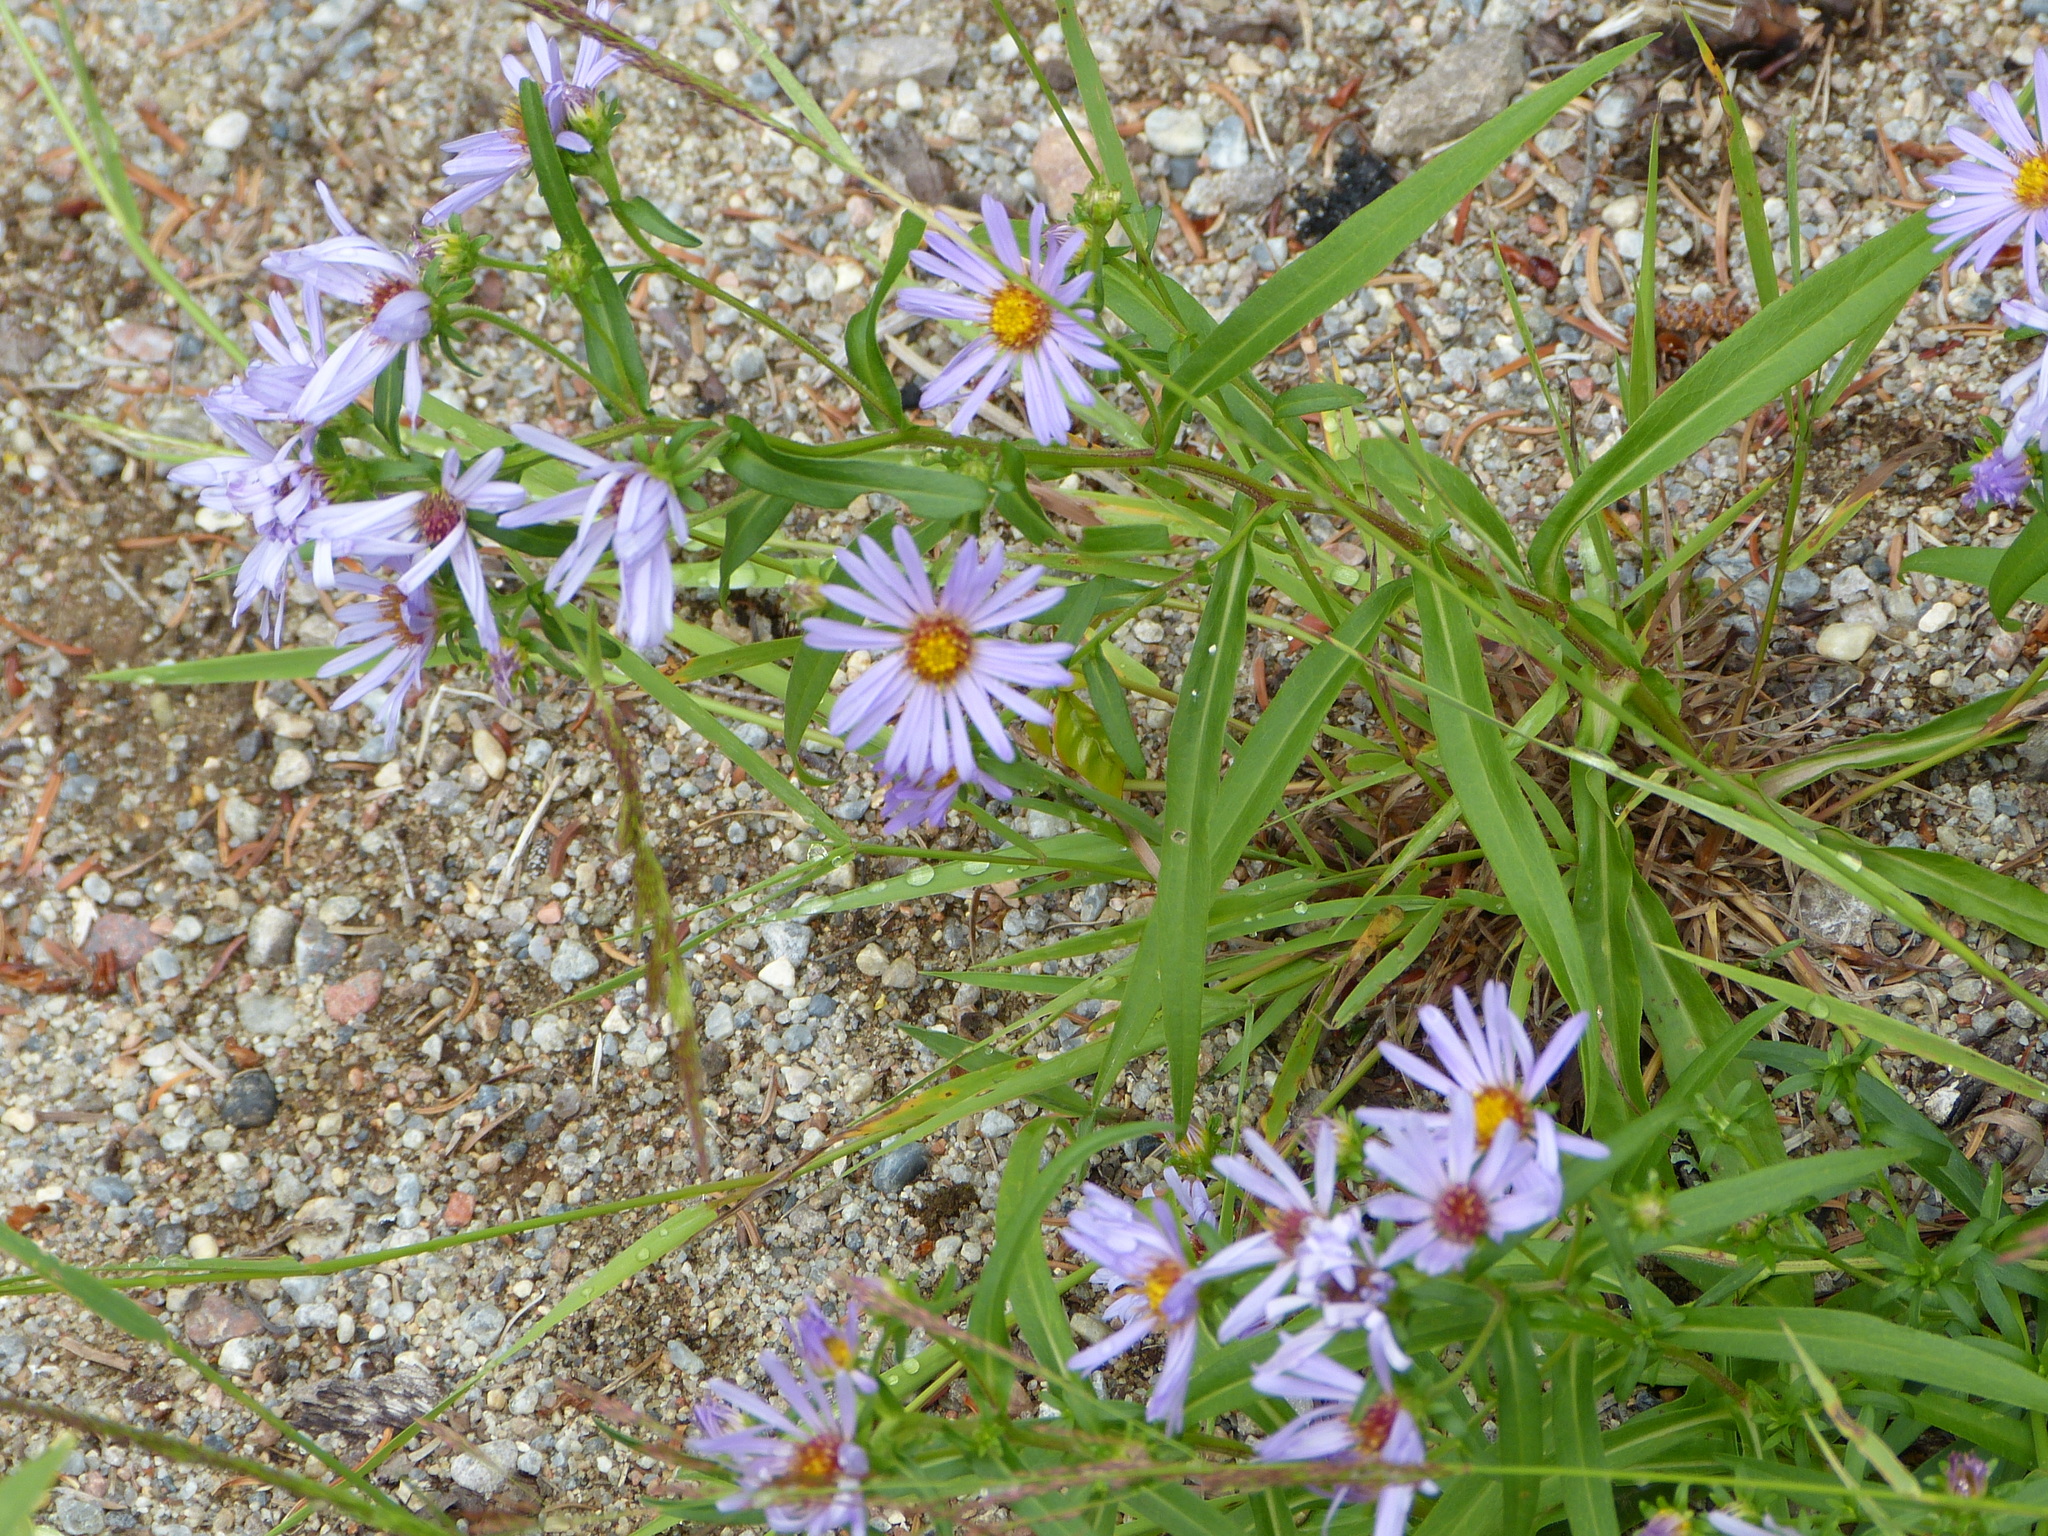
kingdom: Plantae
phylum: Tracheophyta
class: Magnoliopsida
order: Asterales
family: Asteraceae
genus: Symphyotrichum
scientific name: Symphyotrichum novi-belgii
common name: Michaelmas daisy
